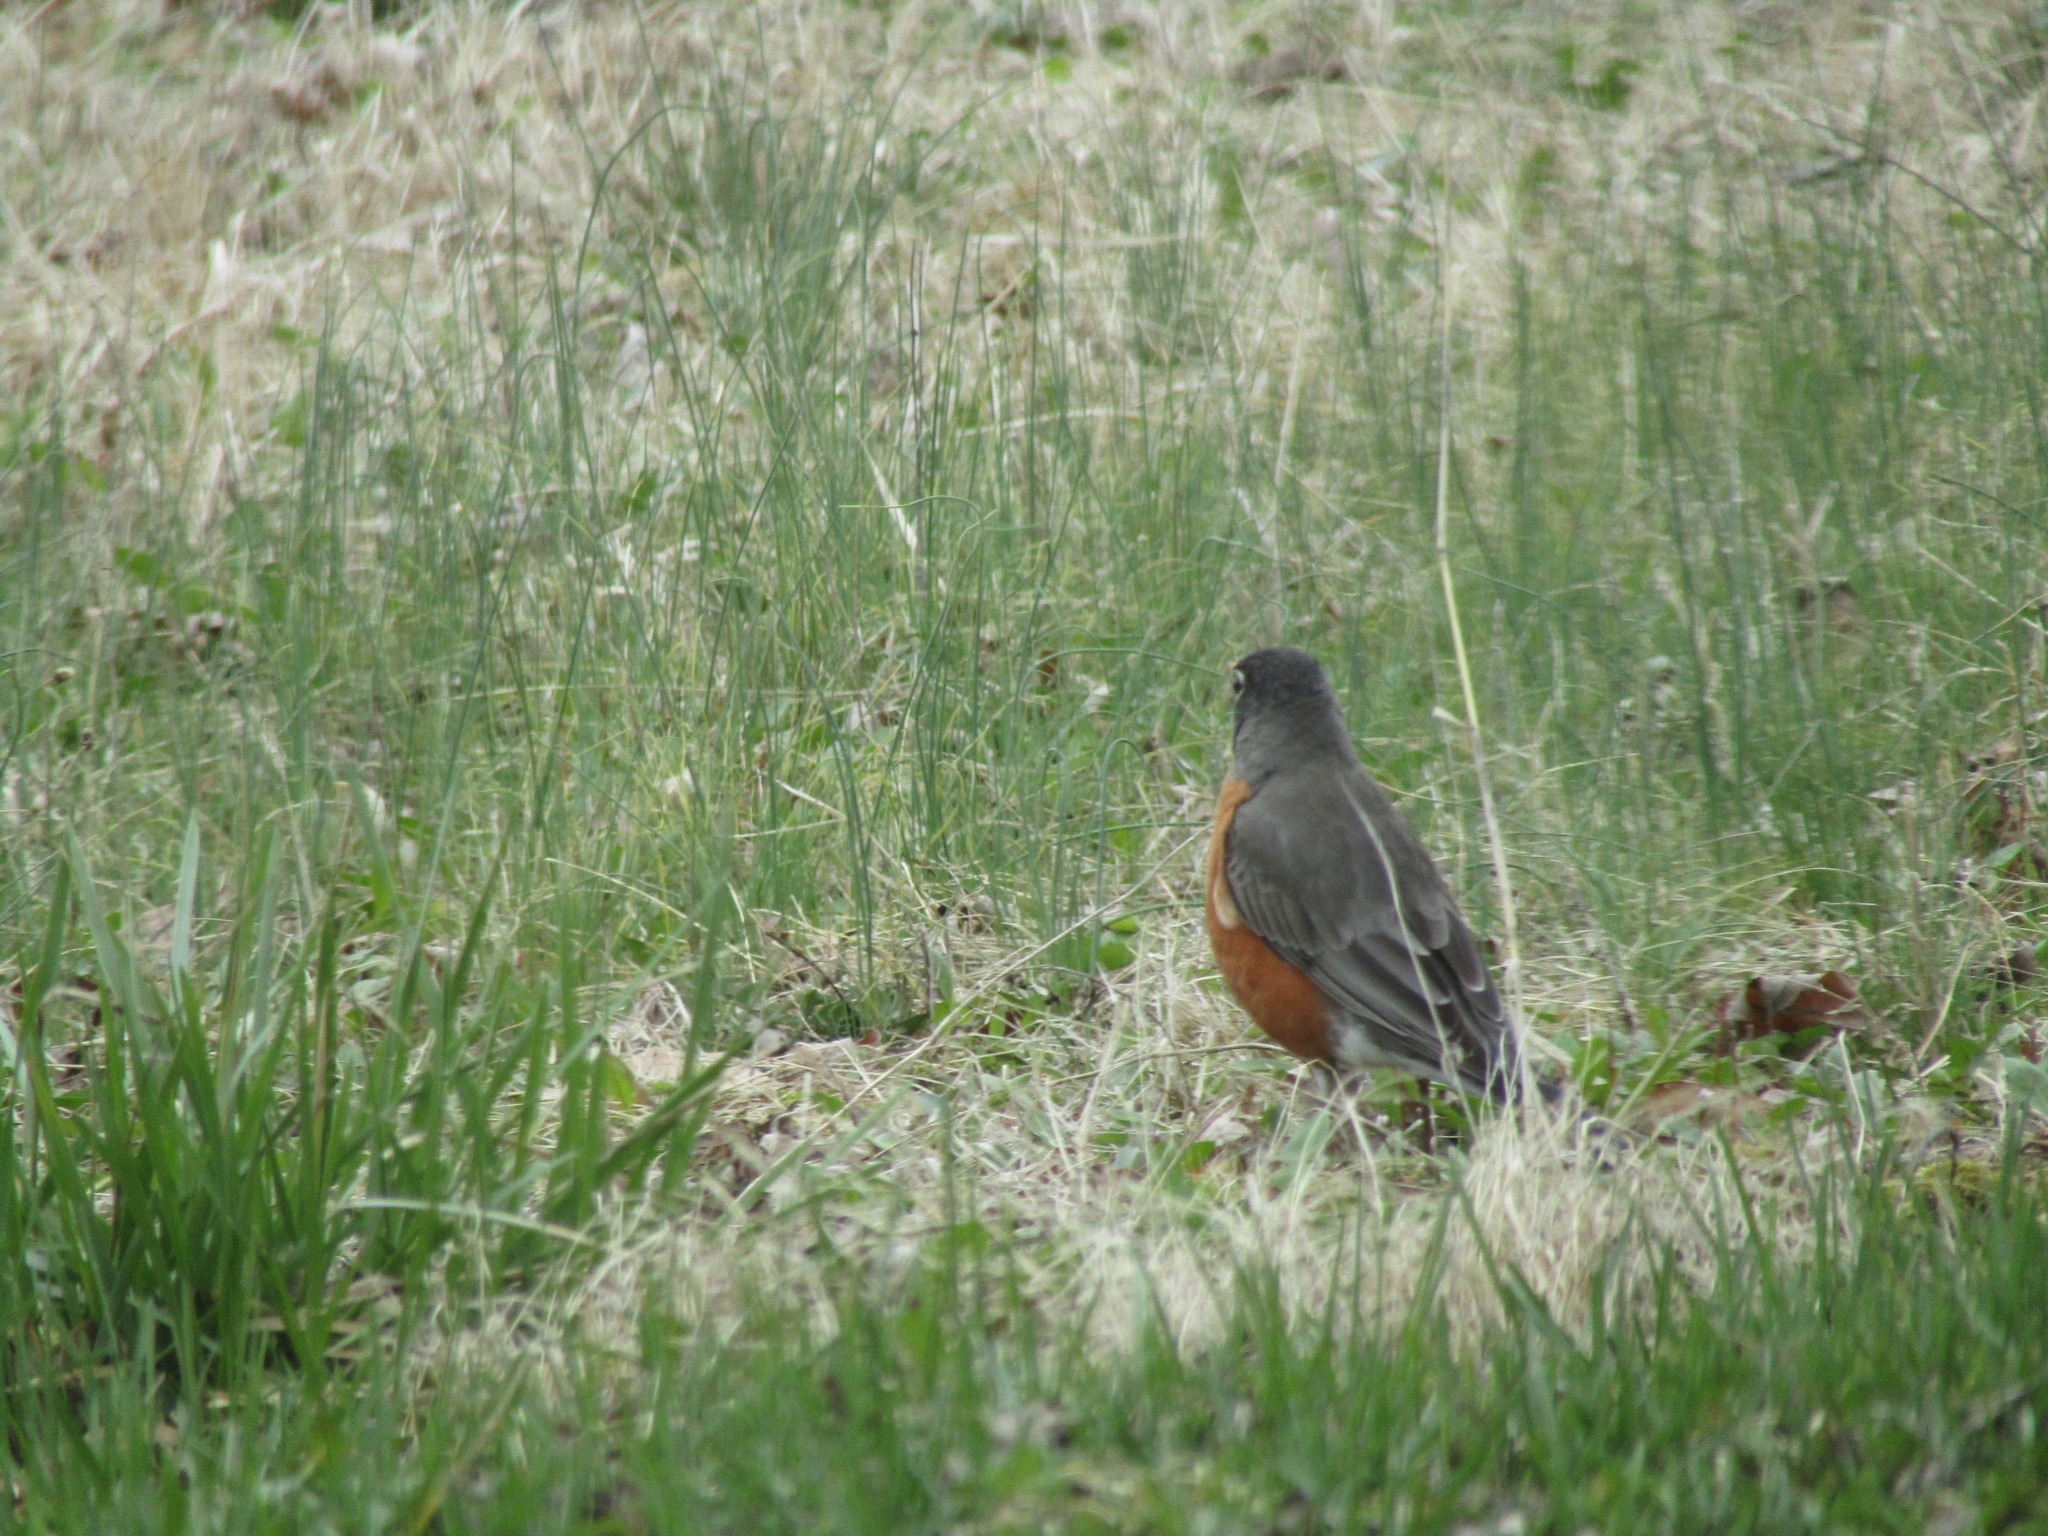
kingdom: Animalia
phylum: Chordata
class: Aves
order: Passeriformes
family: Turdidae
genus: Turdus
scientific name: Turdus migratorius
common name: American robin
